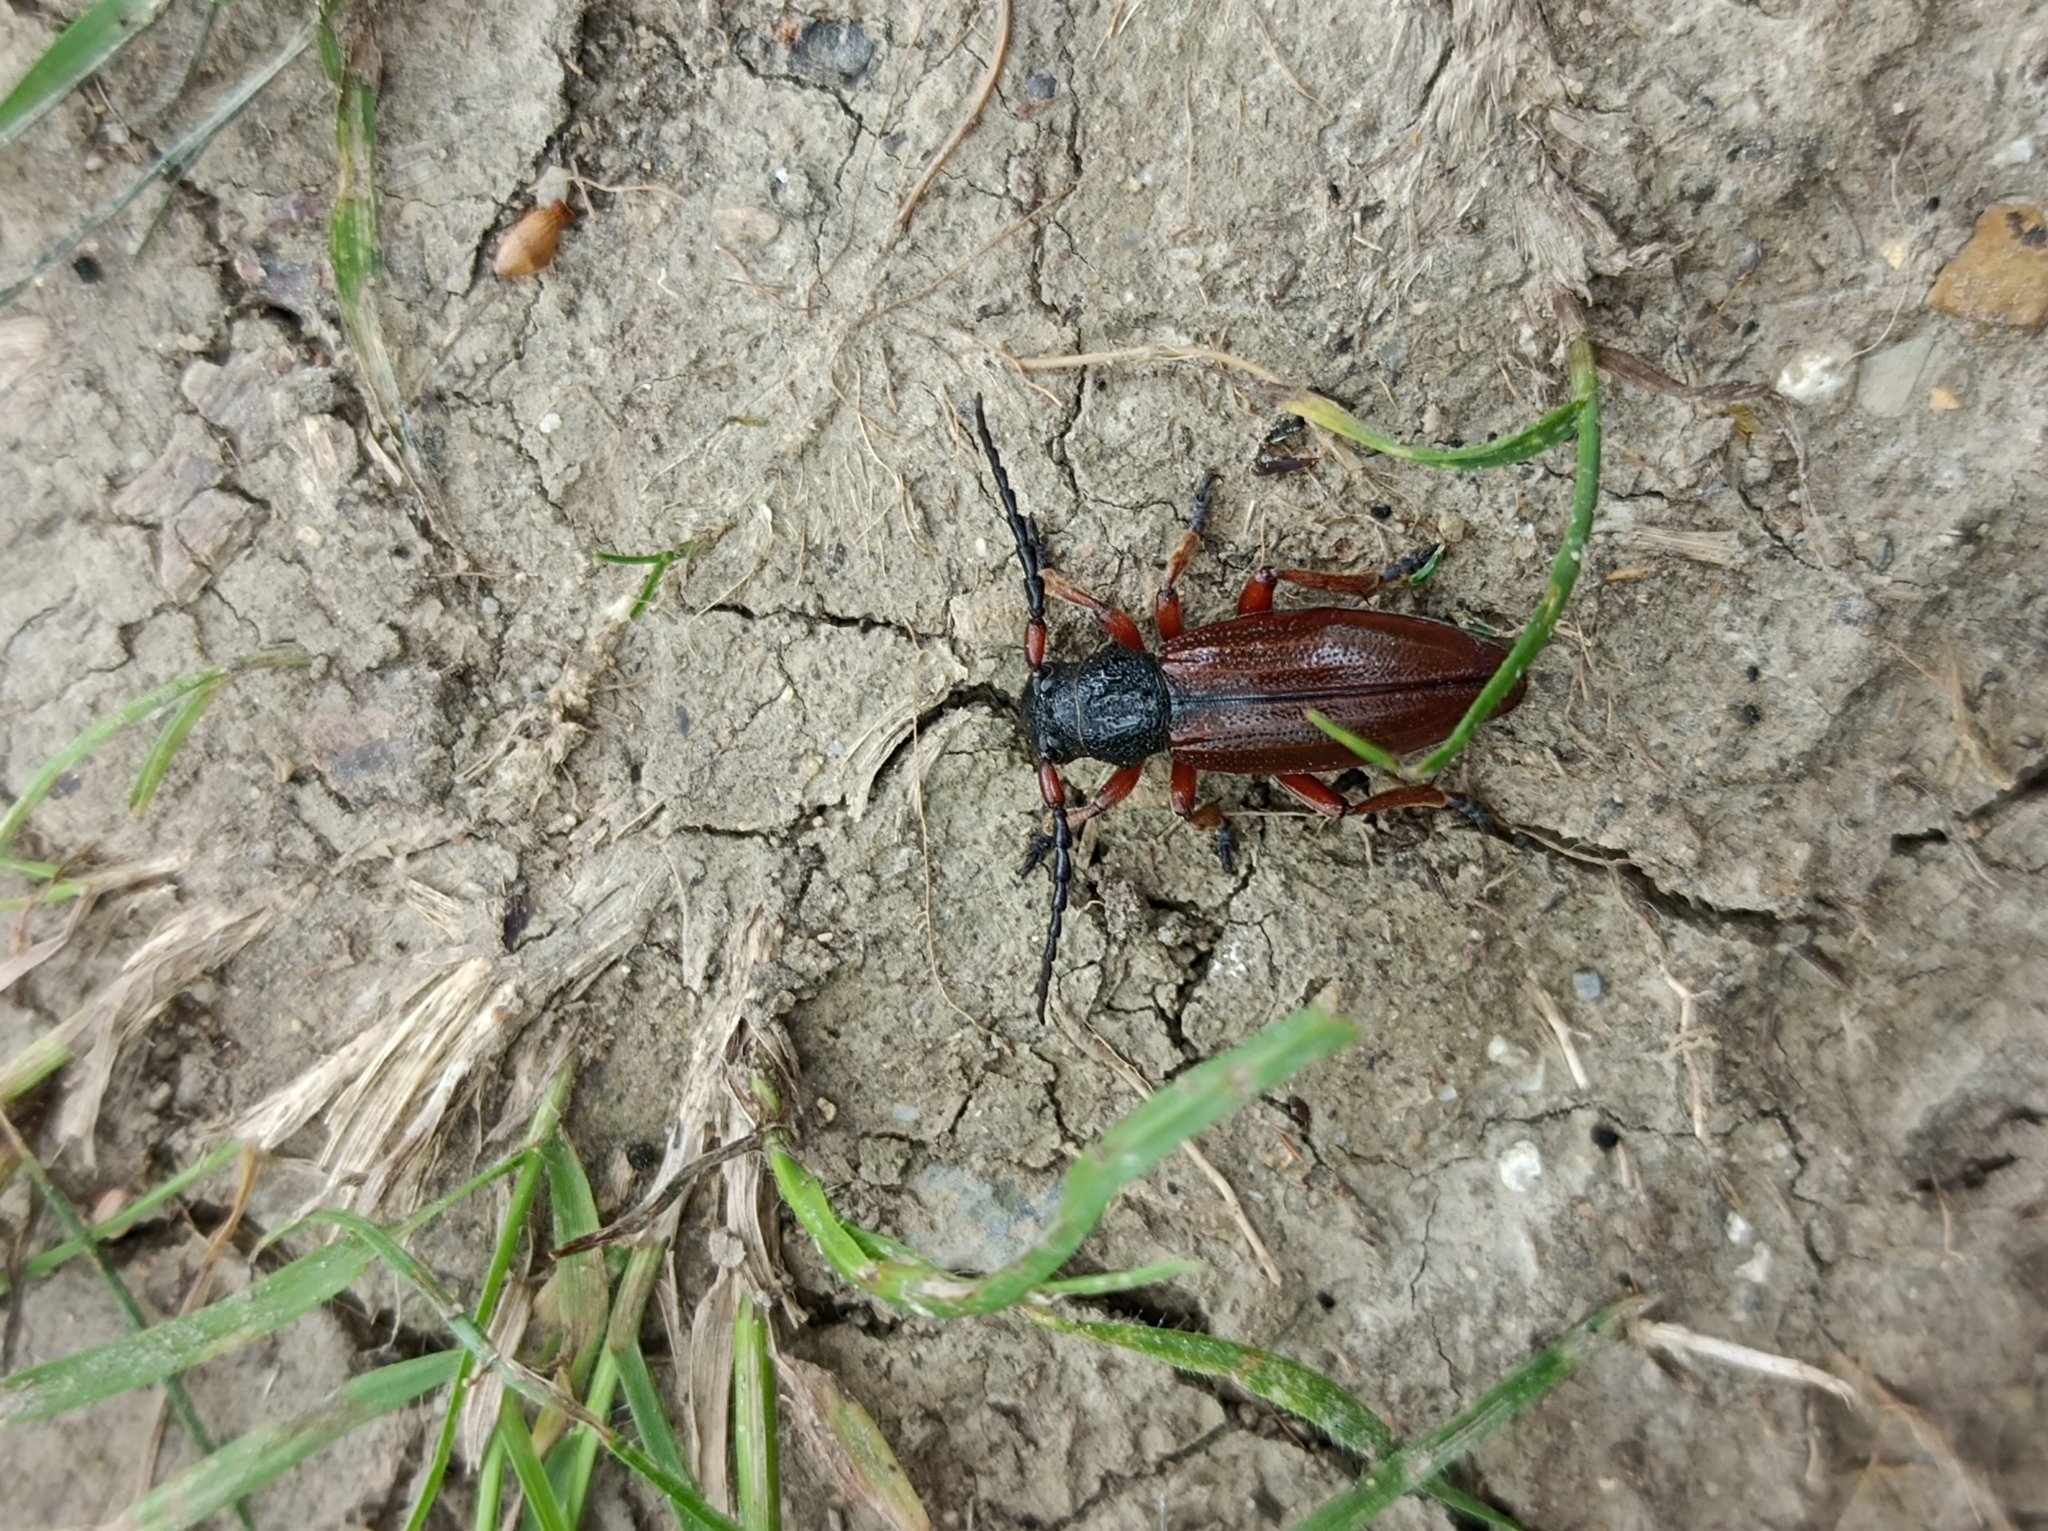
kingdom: Animalia
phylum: Arthropoda
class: Insecta
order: Coleoptera
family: Cerambycidae
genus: Dorcadion
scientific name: Dorcadion fulvum
